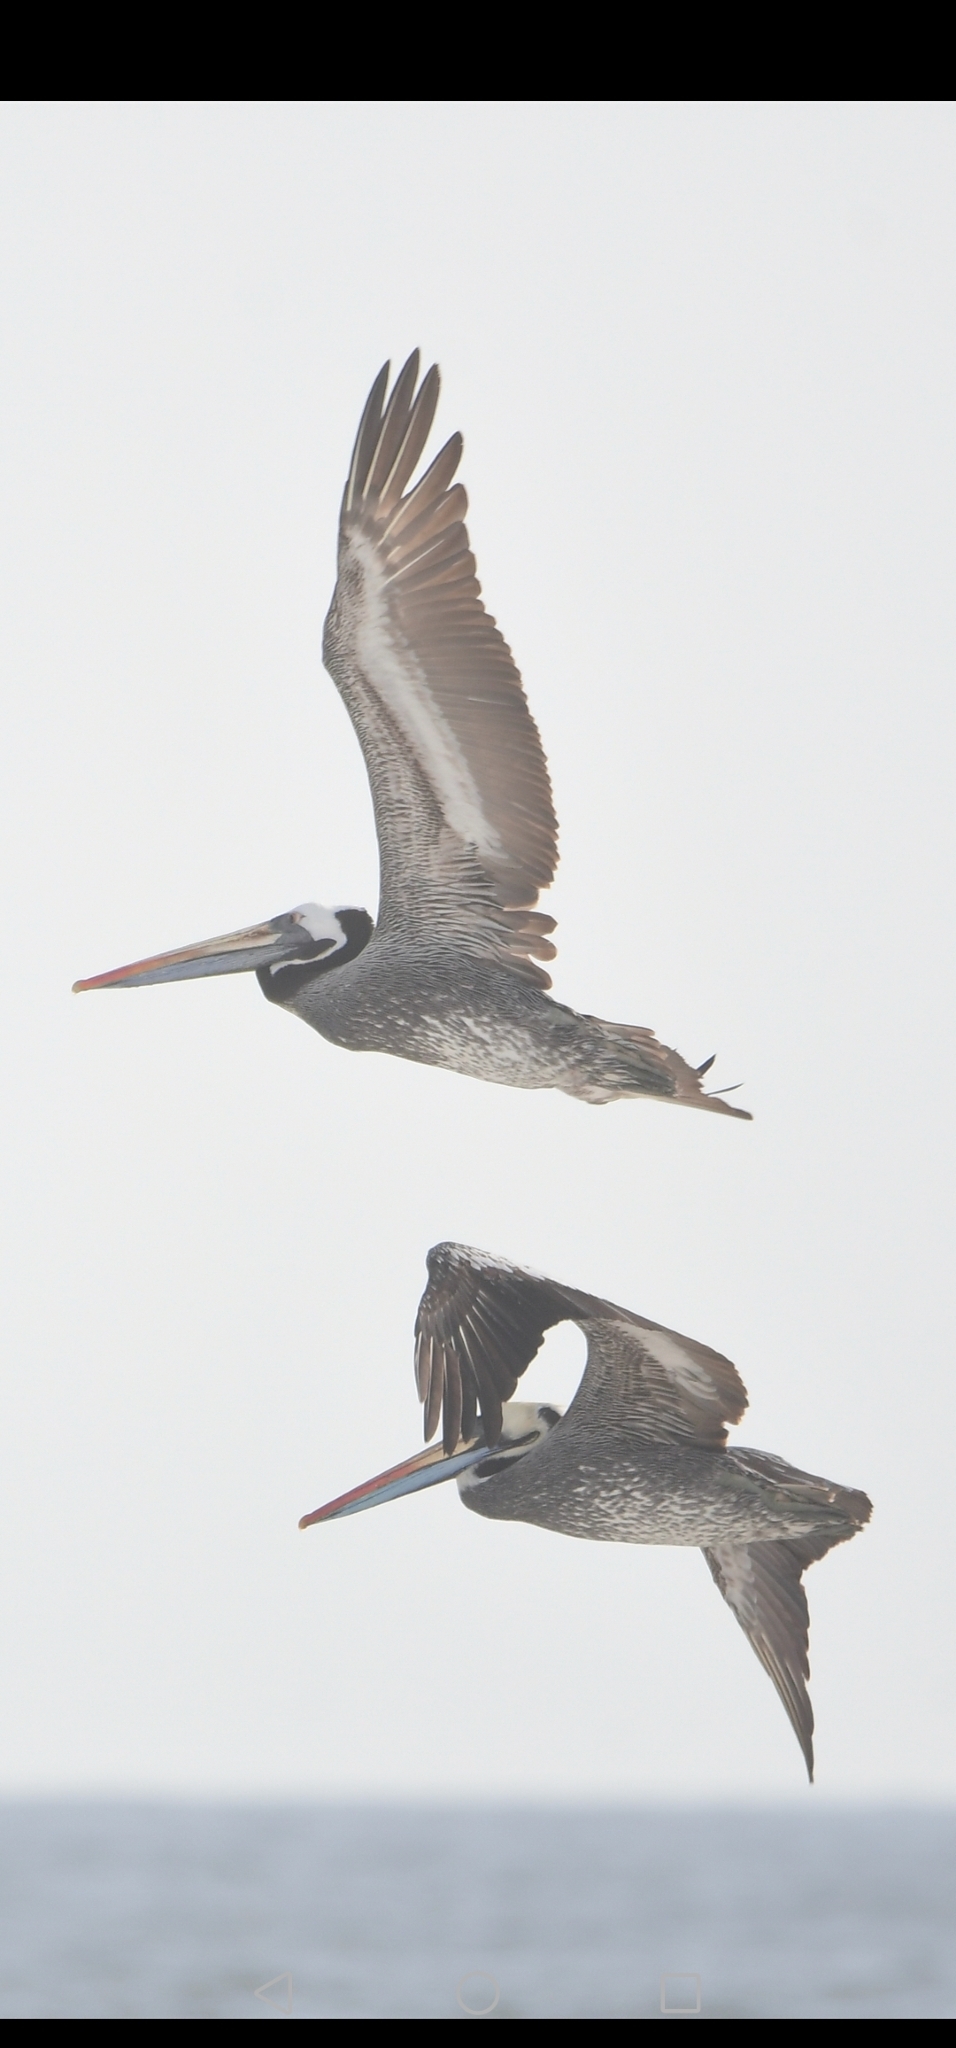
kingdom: Animalia
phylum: Chordata
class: Aves
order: Pelecaniformes
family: Pelecanidae
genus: Pelecanus
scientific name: Pelecanus thagus
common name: Peruvian pelican
